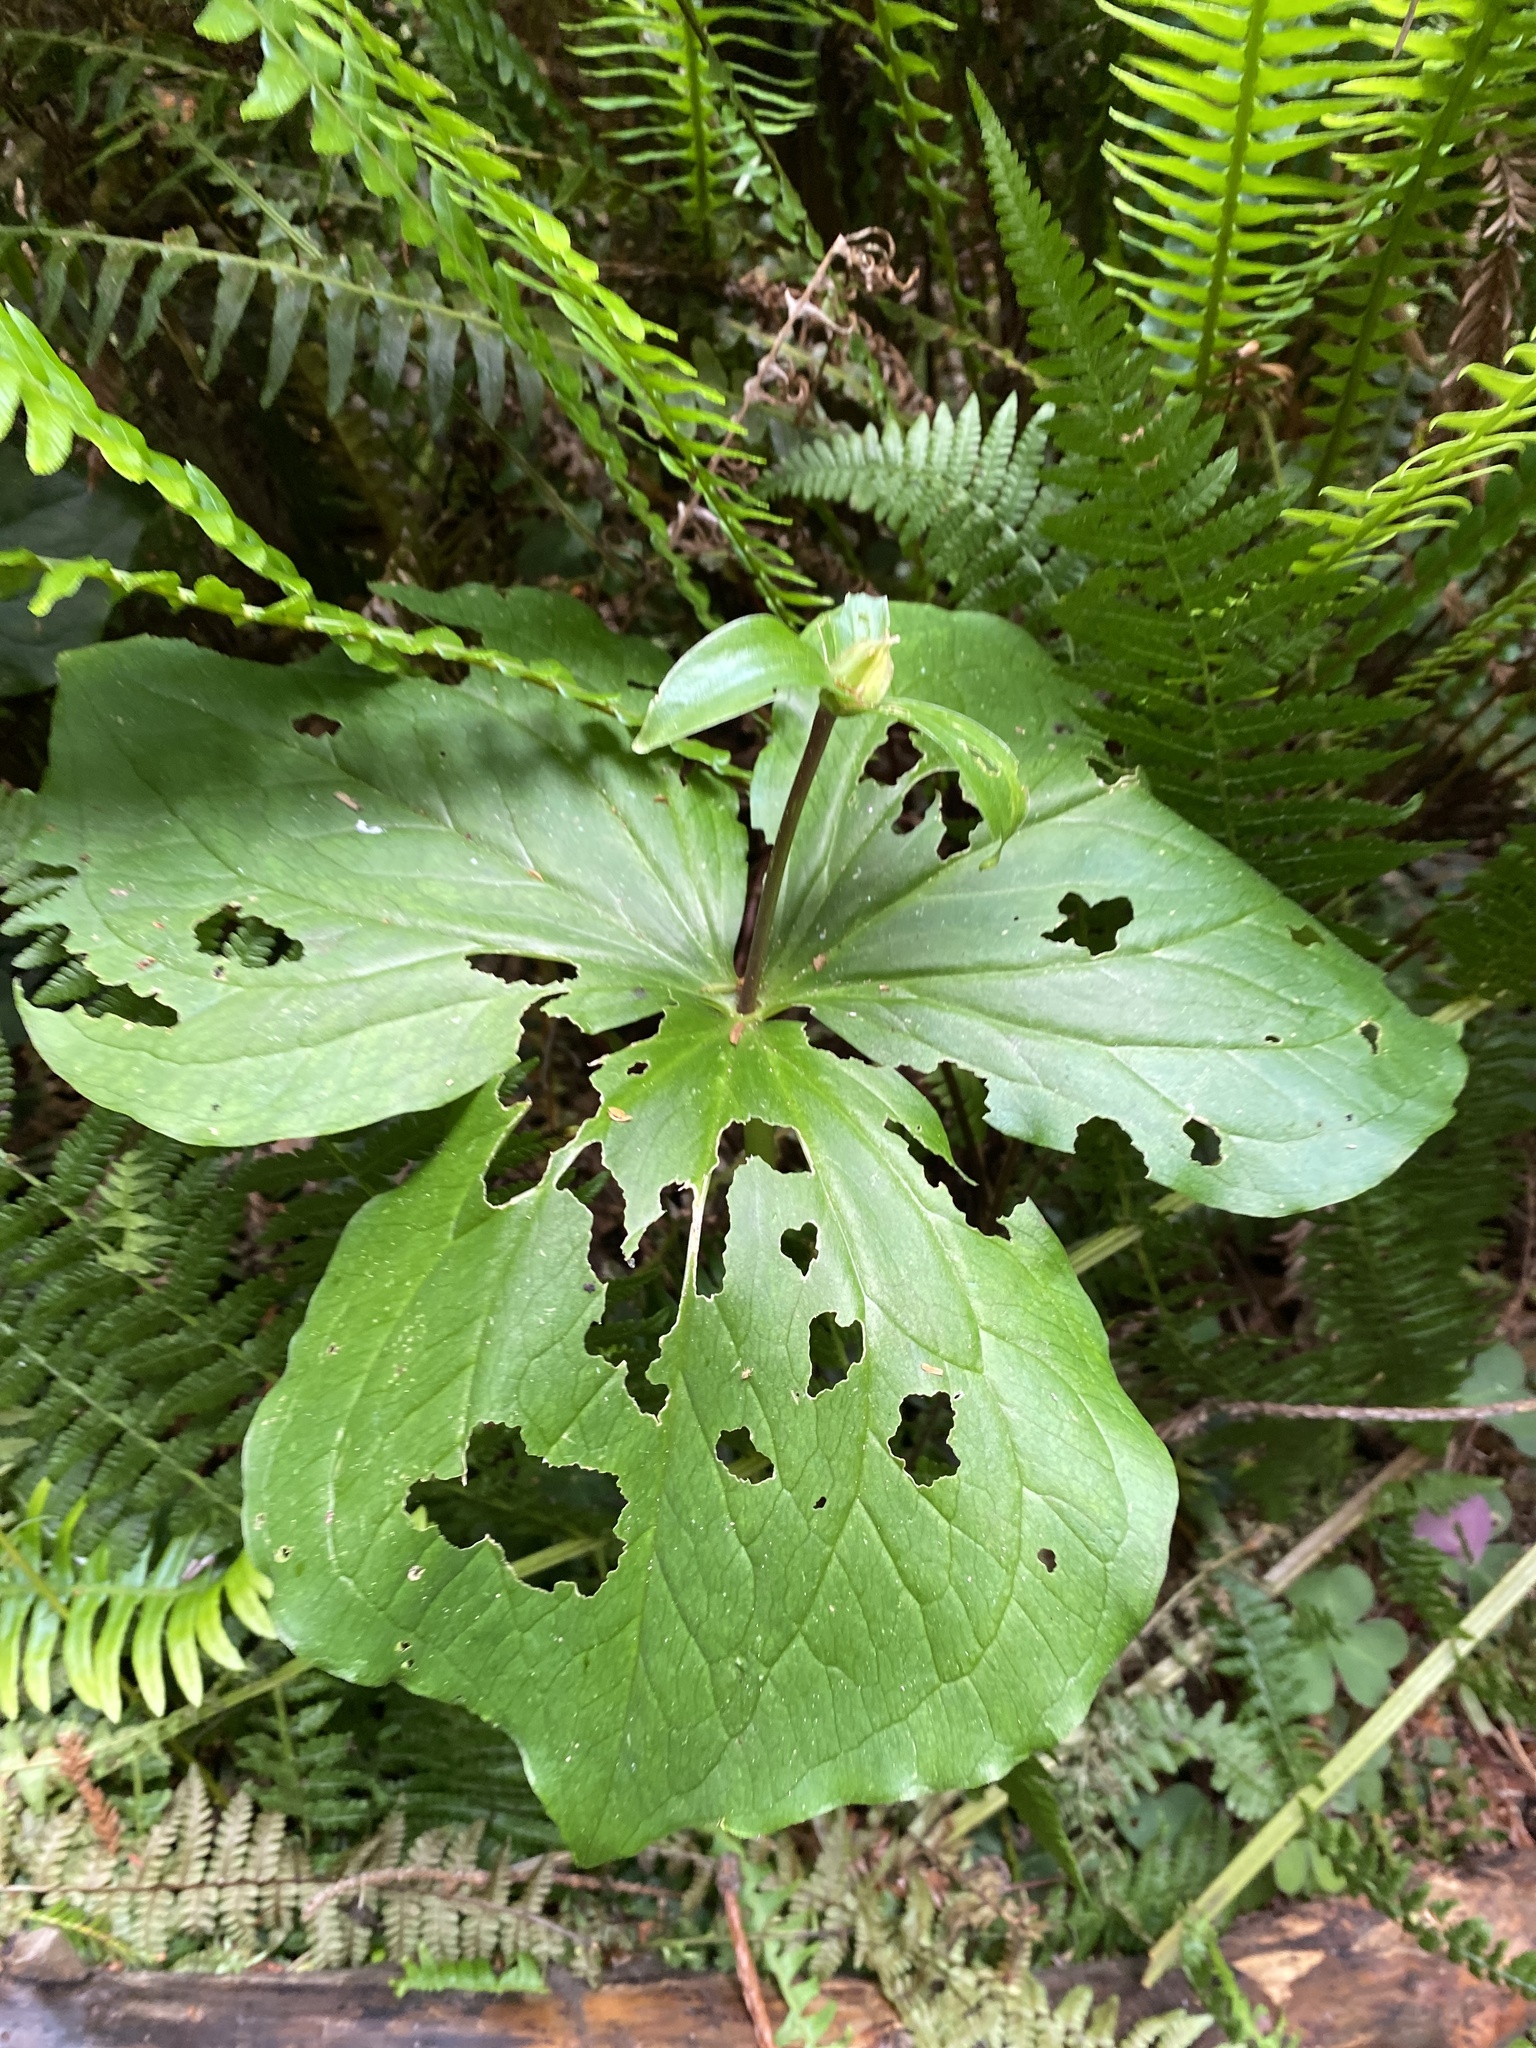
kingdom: Plantae
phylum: Tracheophyta
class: Liliopsida
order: Liliales
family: Melanthiaceae
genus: Trillium
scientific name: Trillium ovatum
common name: Pacific trillium
